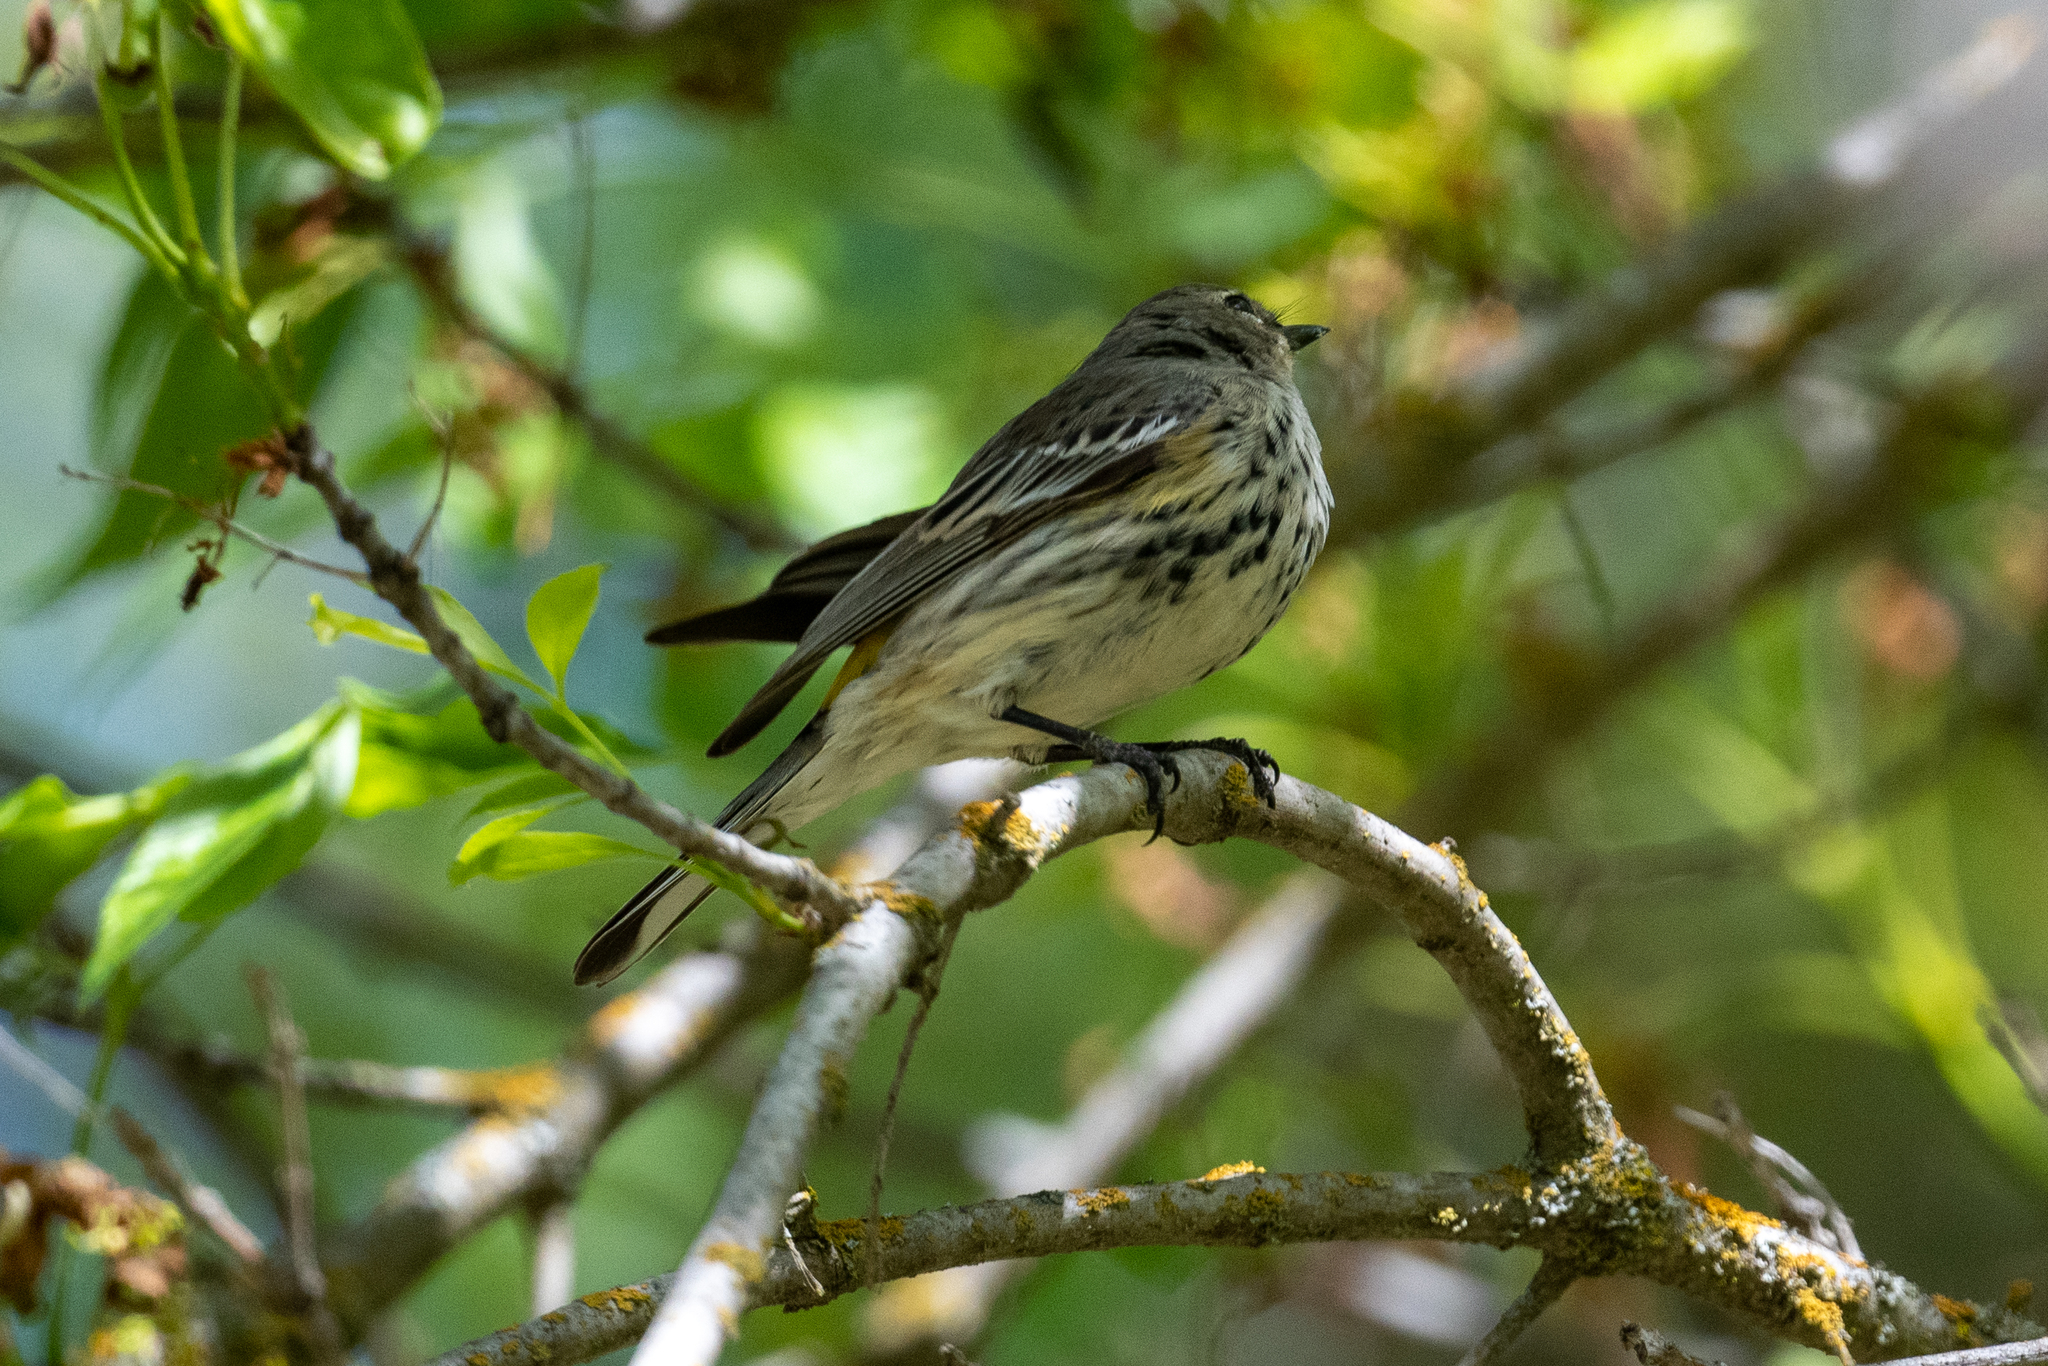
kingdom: Animalia
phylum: Chordata
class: Aves
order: Passeriformes
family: Parulidae
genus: Setophaga
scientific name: Setophaga coronata
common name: Myrtle warbler
